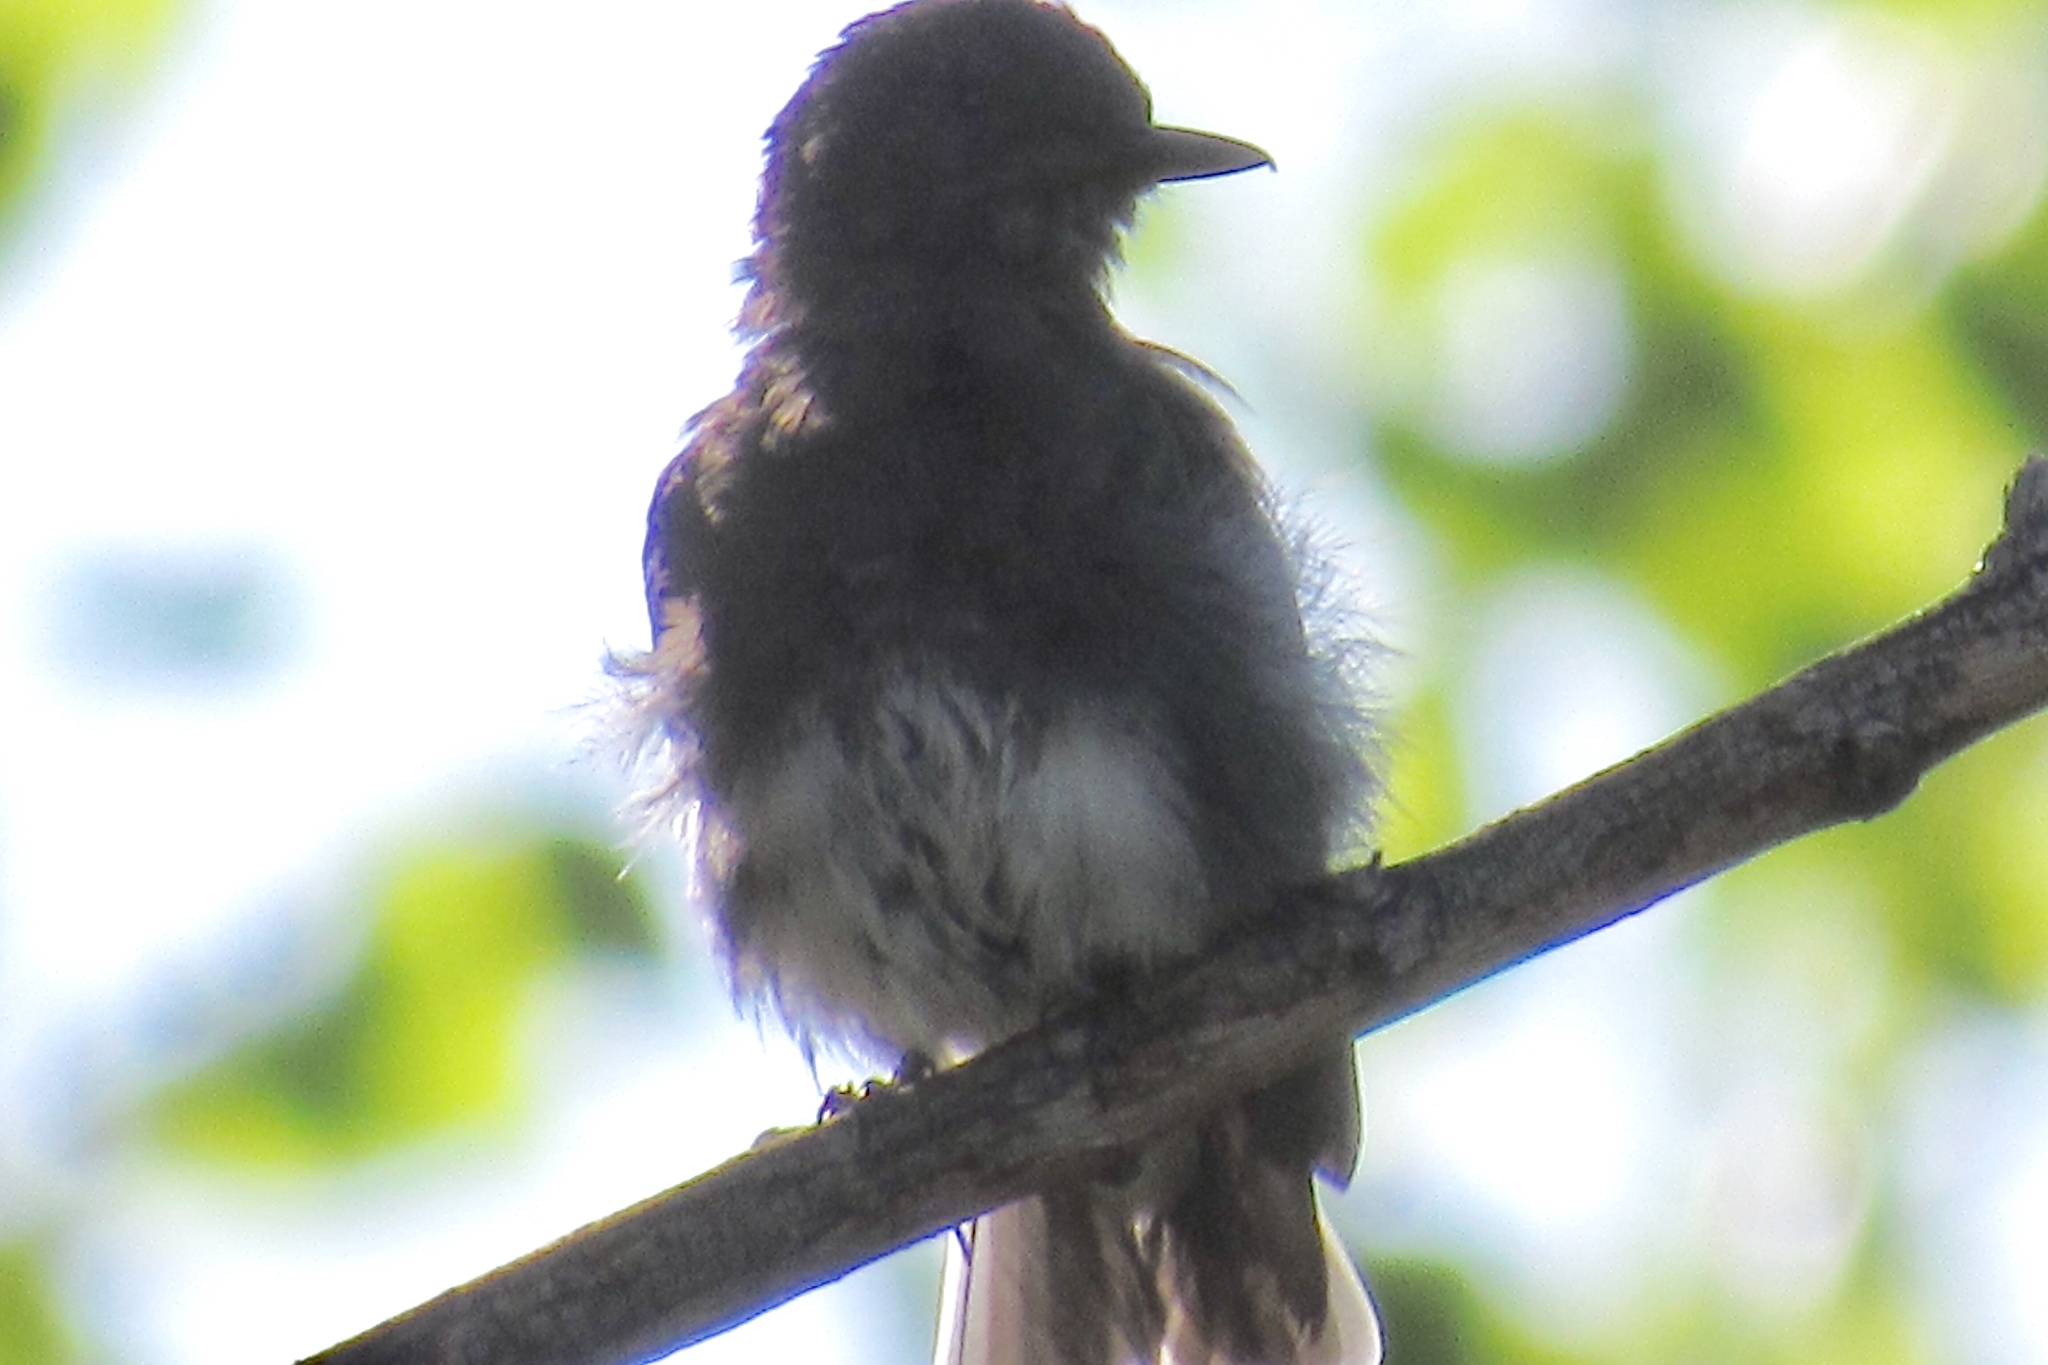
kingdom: Animalia
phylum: Chordata
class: Aves
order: Passeriformes
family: Tyrannidae
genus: Sayornis
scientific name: Sayornis nigricans
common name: Black phoebe
